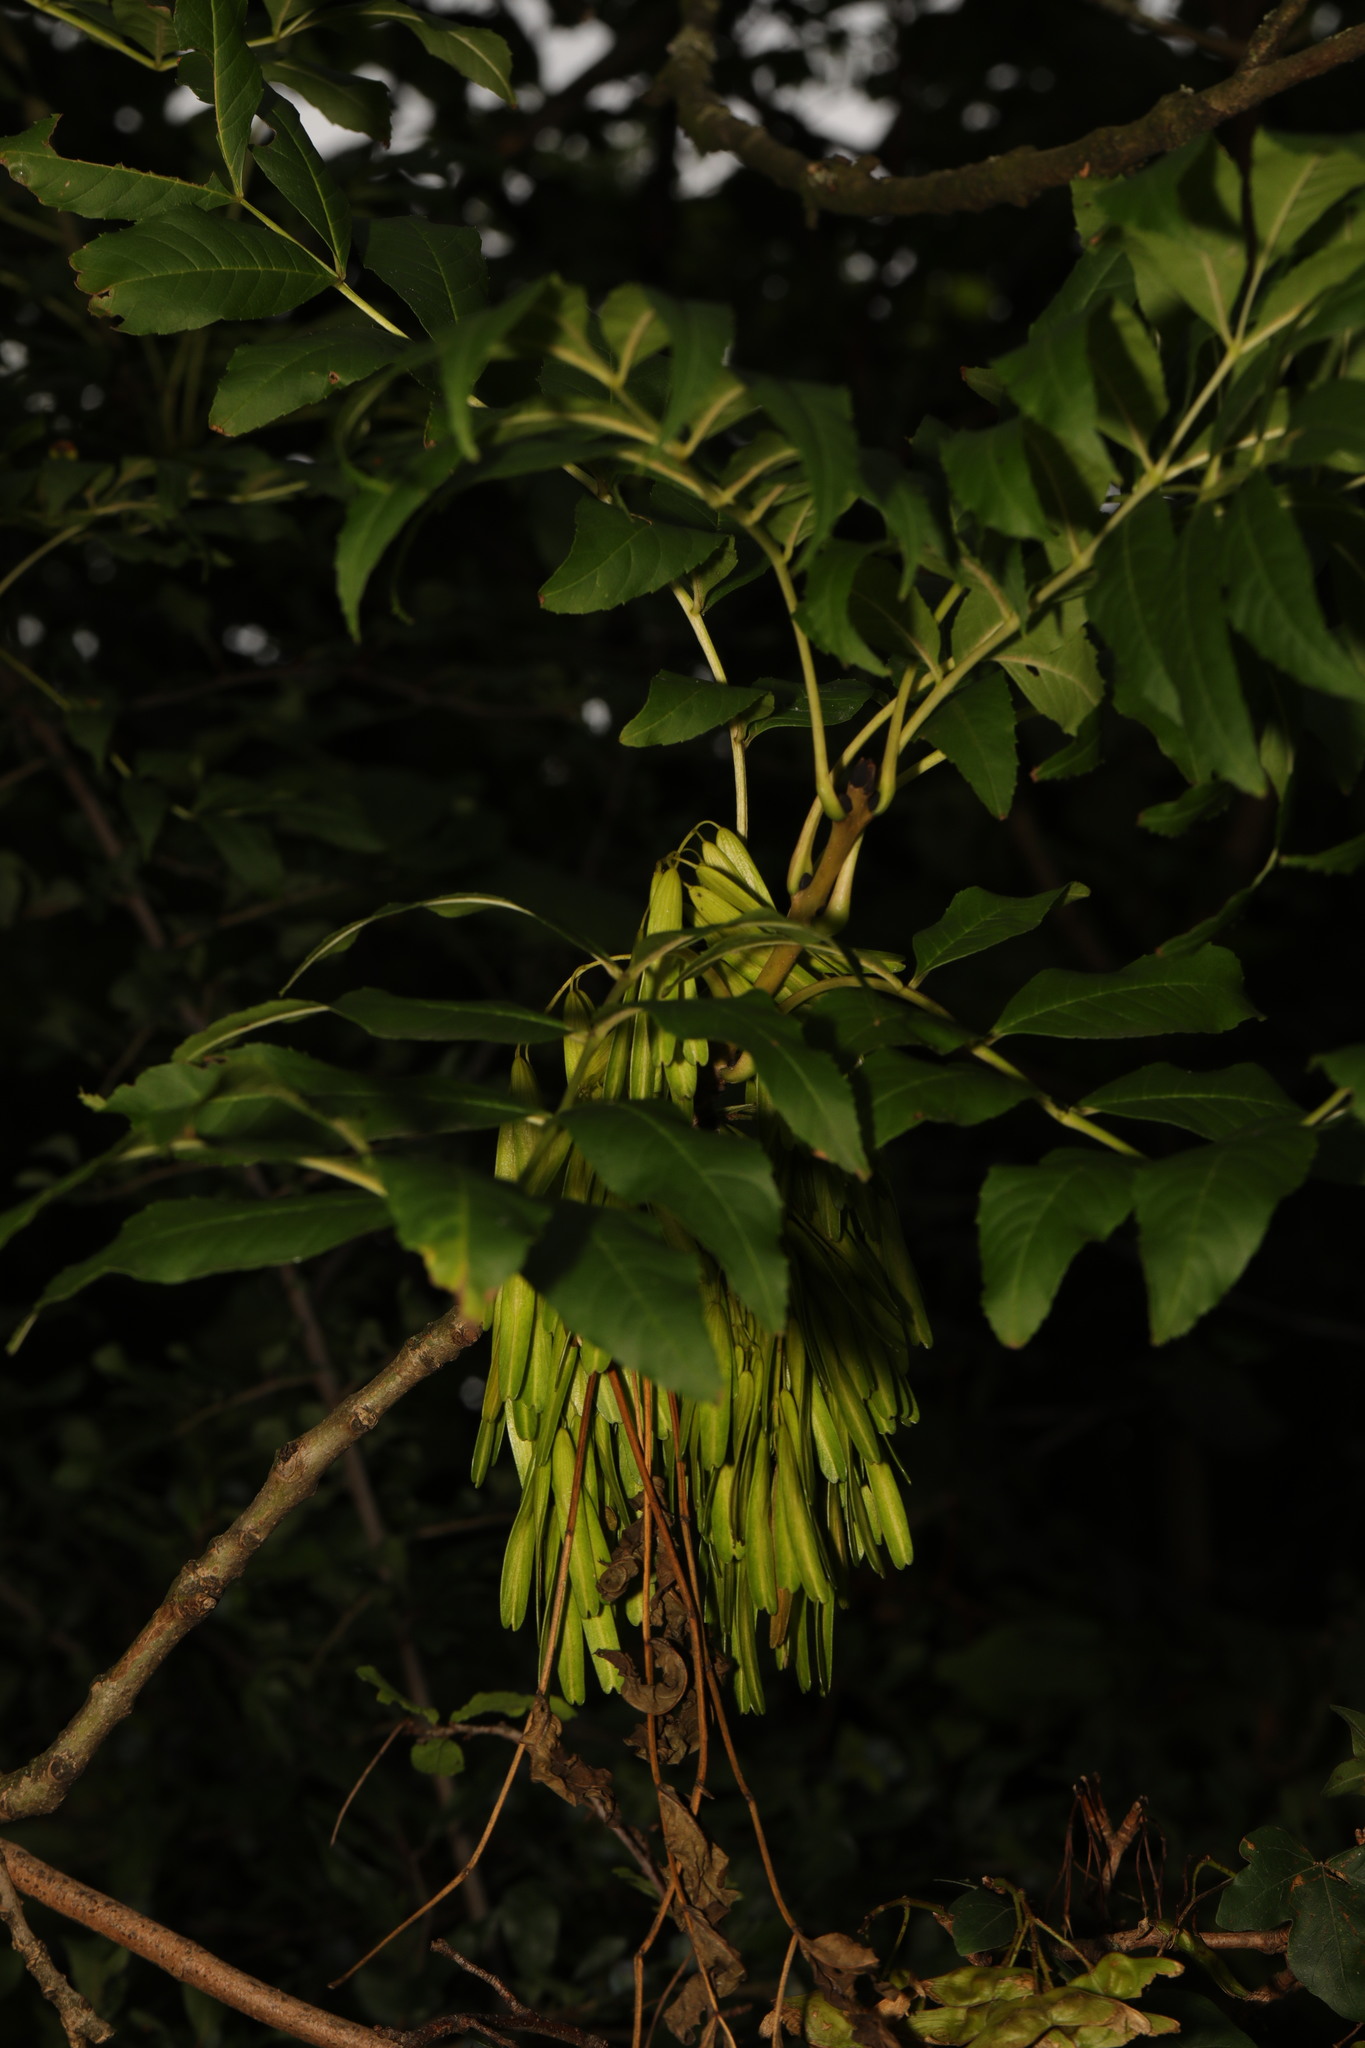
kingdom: Plantae
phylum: Tracheophyta
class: Magnoliopsida
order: Lamiales
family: Oleaceae
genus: Fraxinus
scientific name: Fraxinus excelsior
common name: European ash
